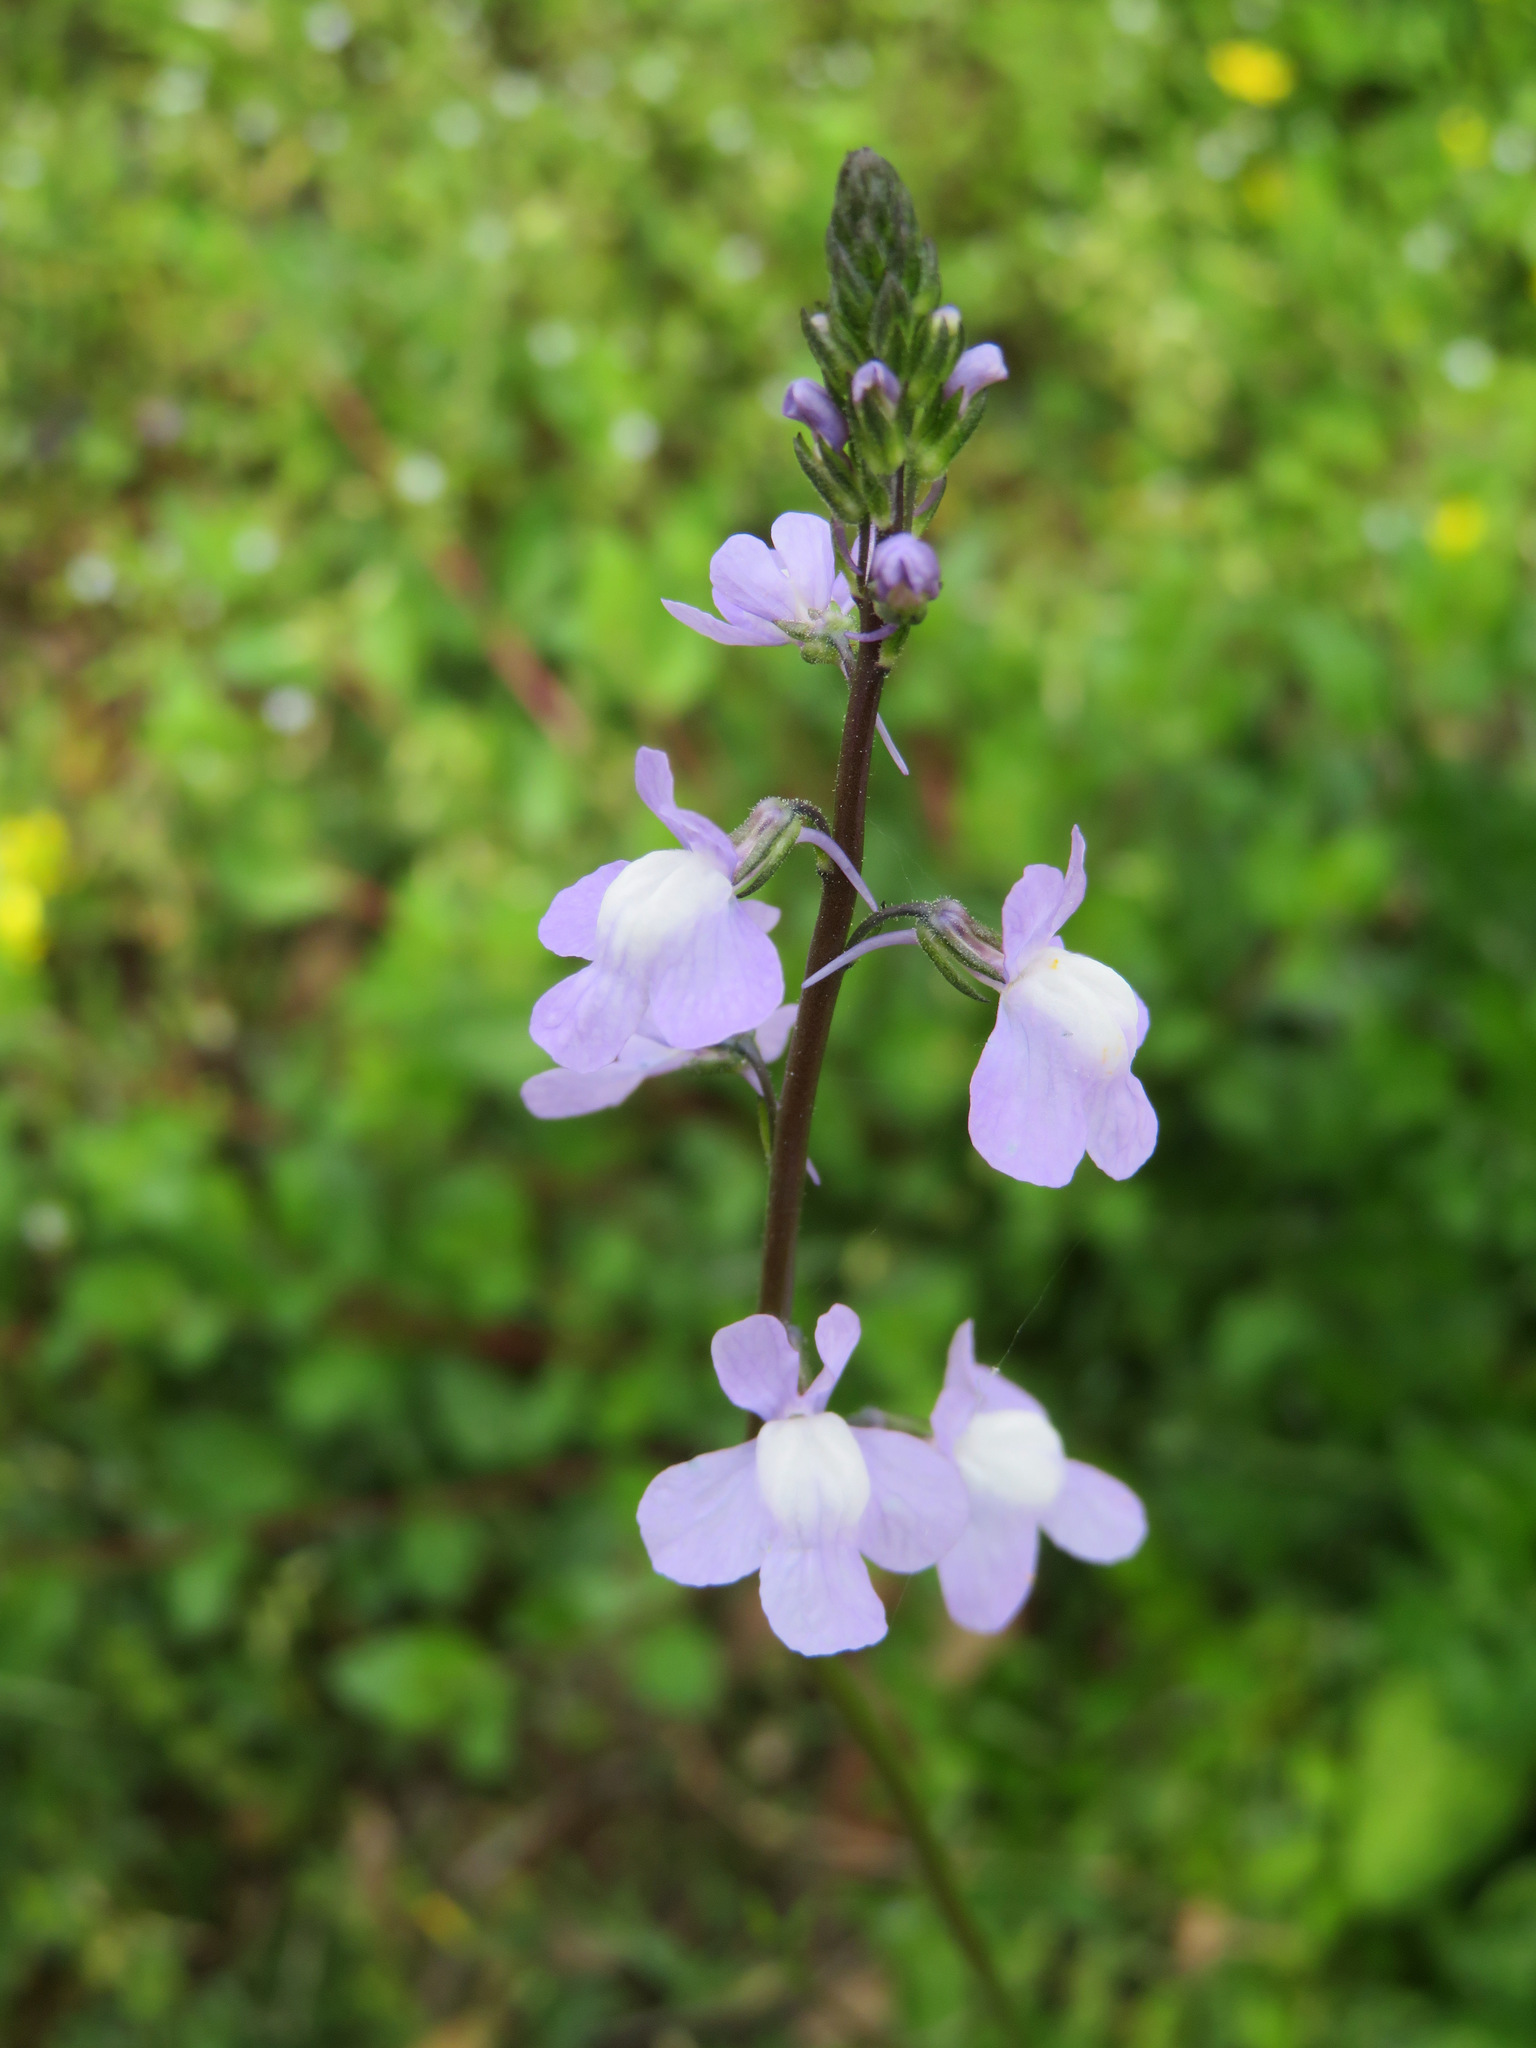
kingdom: Plantae
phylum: Tracheophyta
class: Magnoliopsida
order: Lamiales
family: Plantaginaceae
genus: Nuttallanthus
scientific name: Nuttallanthus canadensis
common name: Blue toadflax
